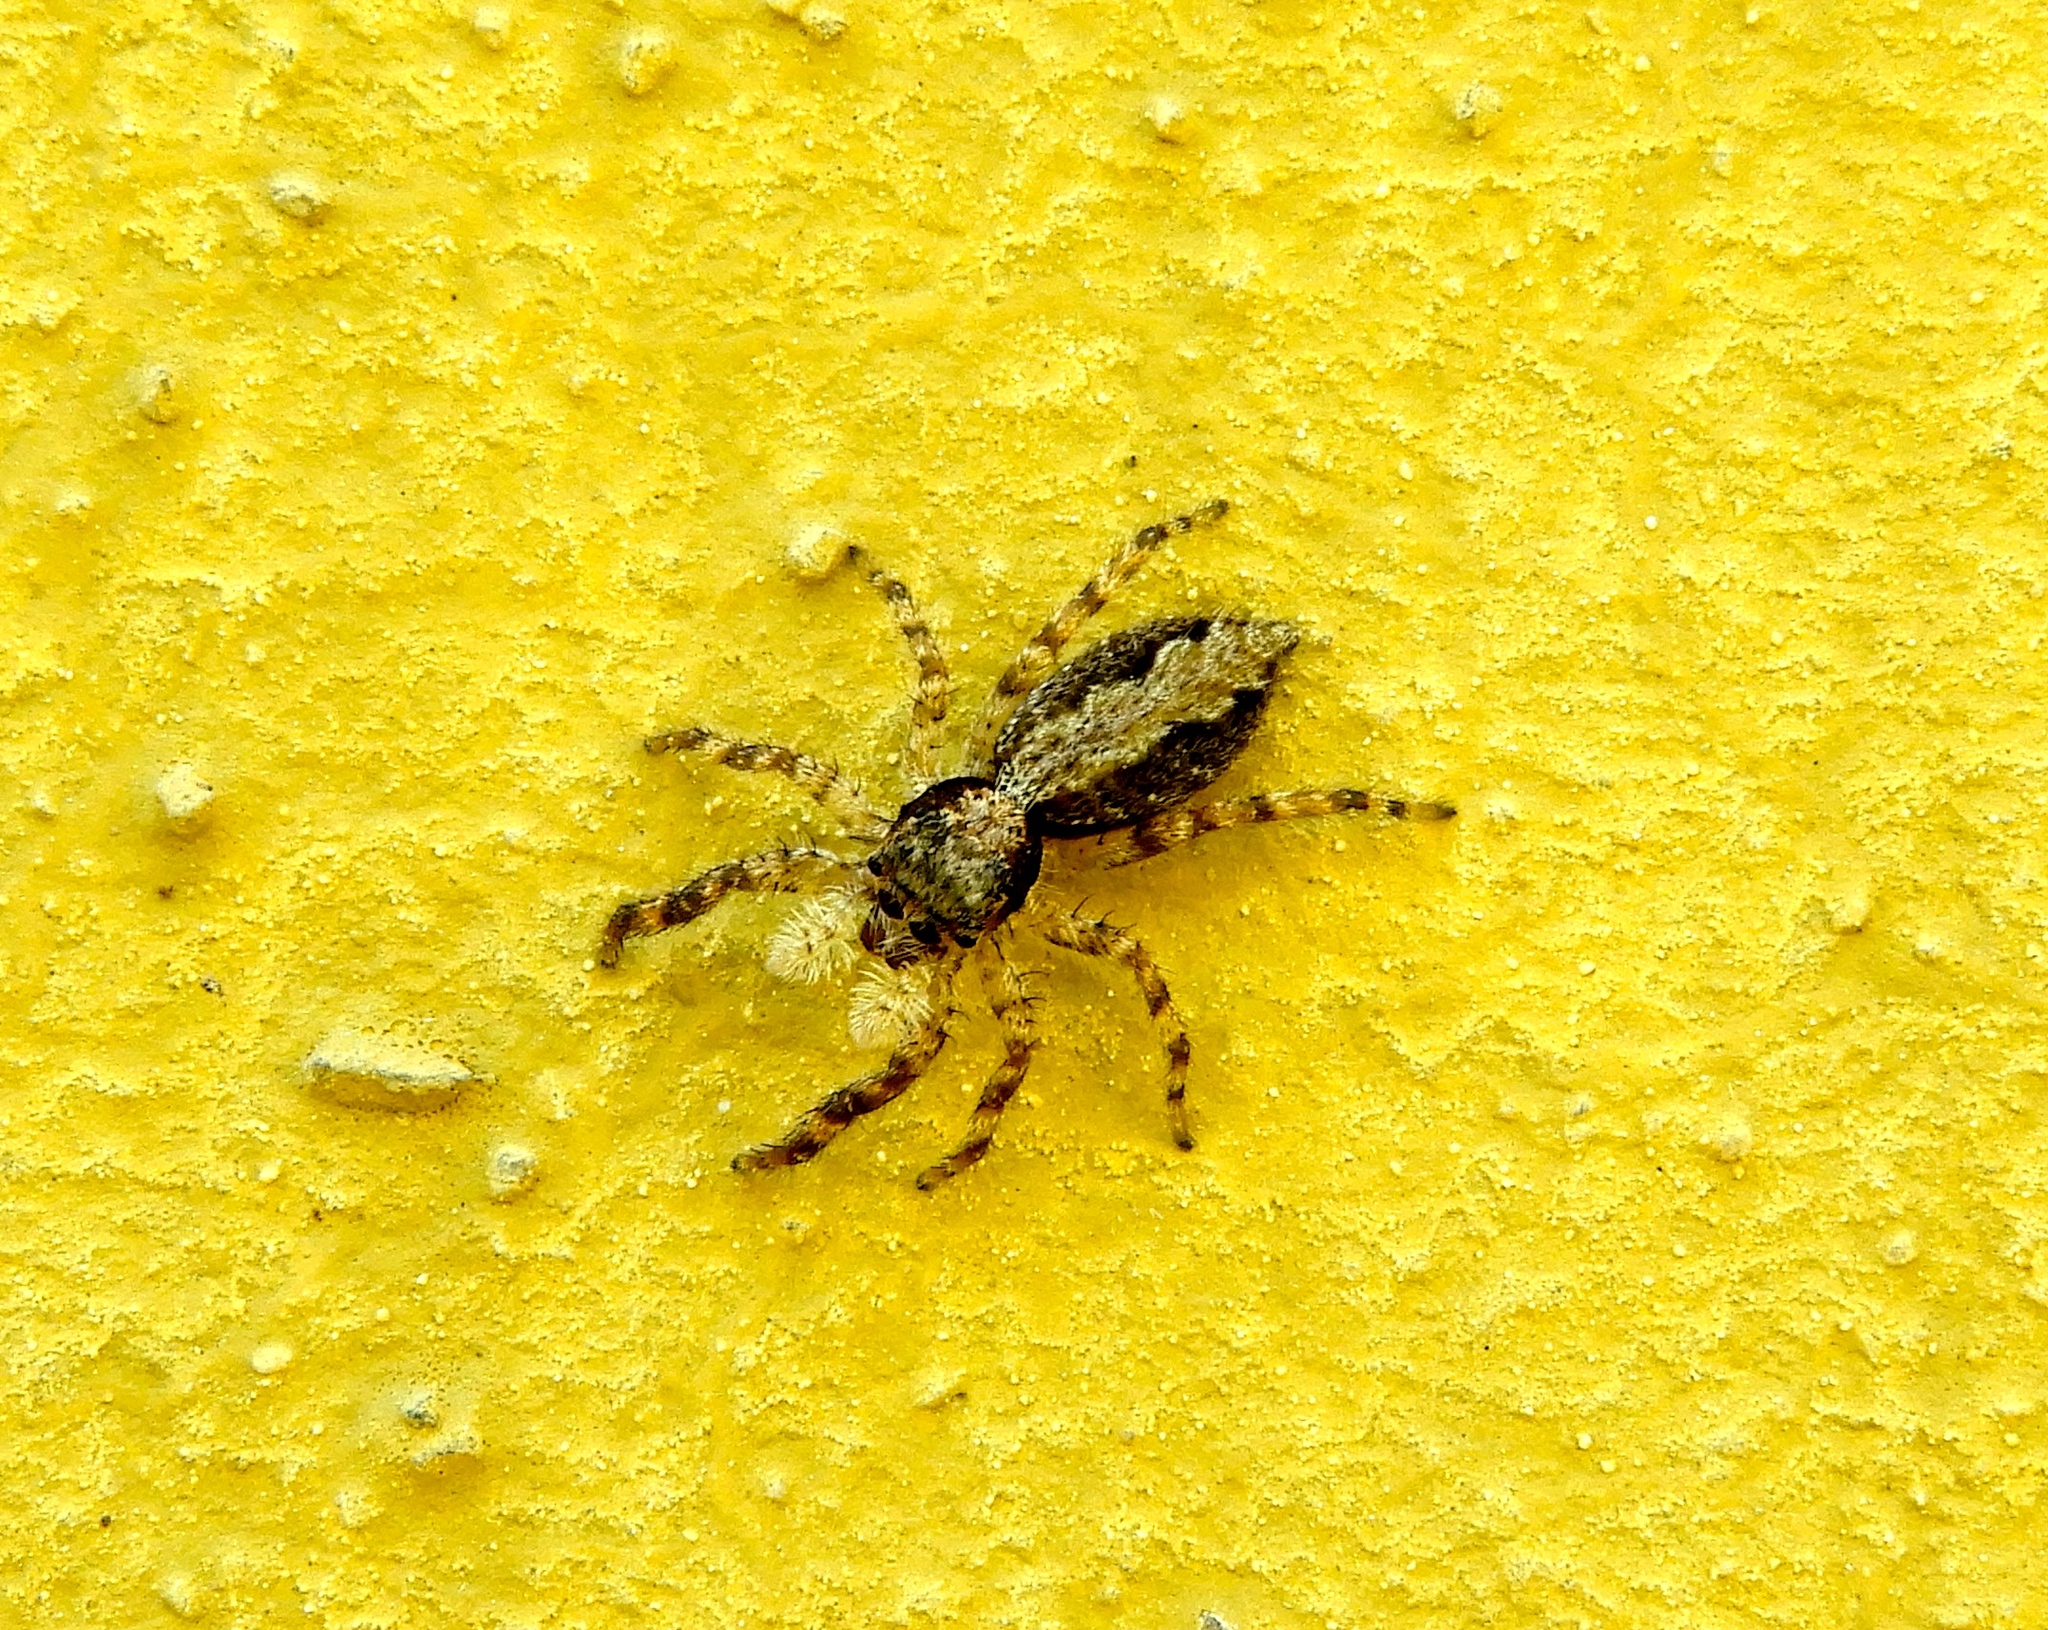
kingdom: Animalia
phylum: Arthropoda
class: Arachnida
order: Araneae
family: Salticidae
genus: Balmaceda
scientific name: Balmaceda
